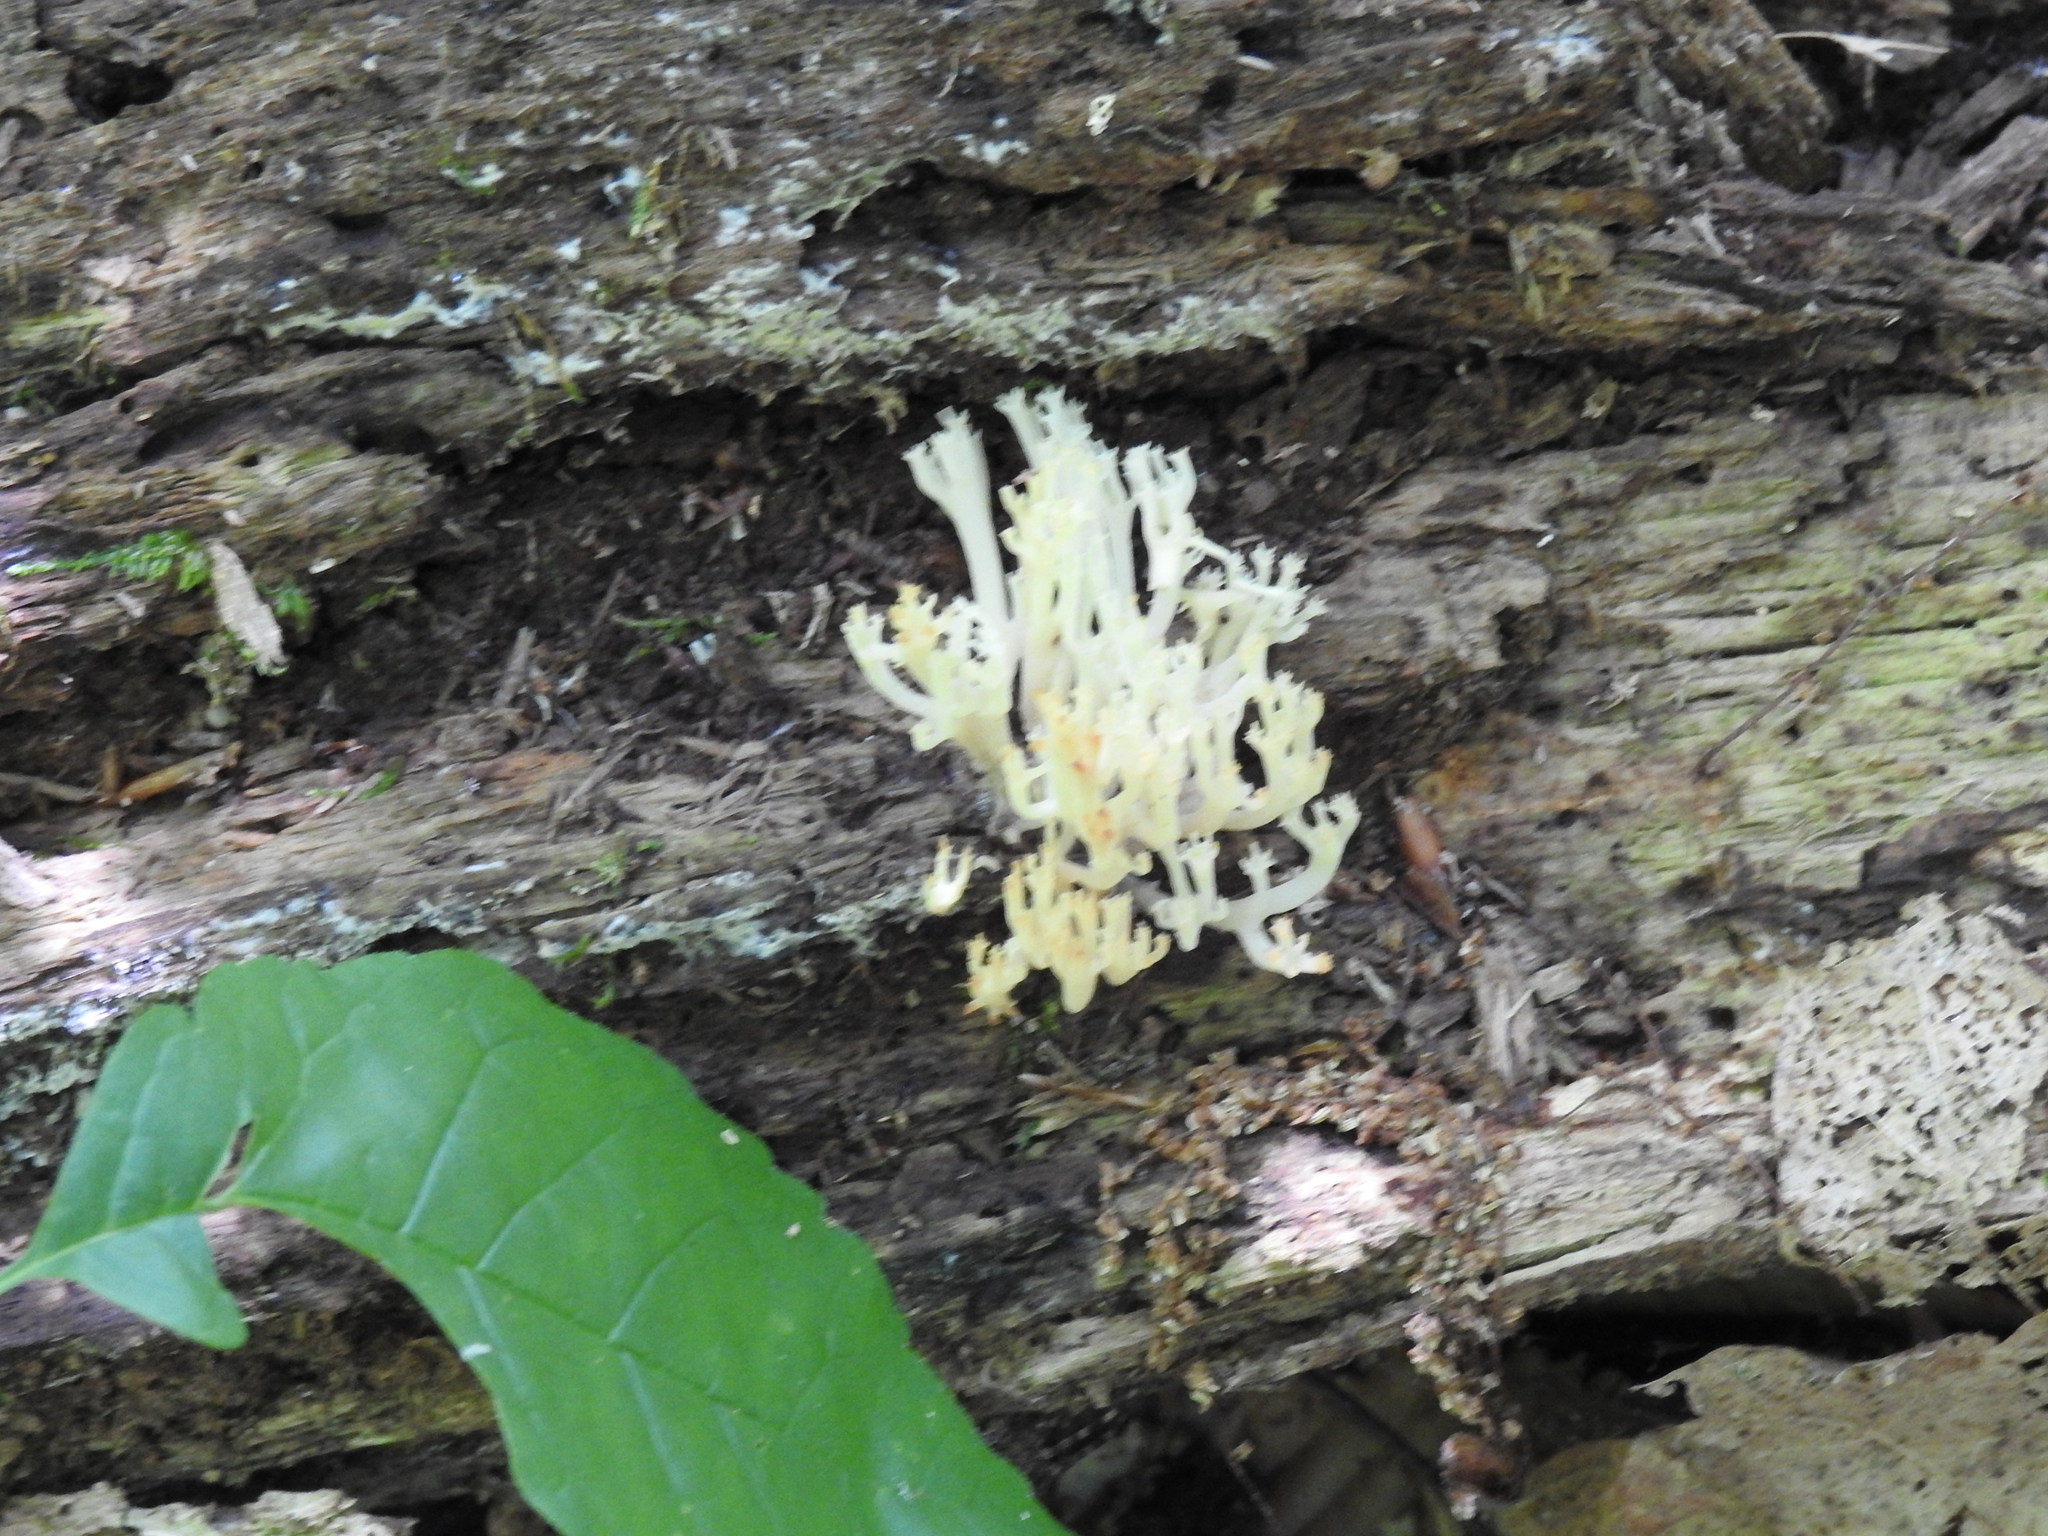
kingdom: Fungi
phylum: Basidiomycota
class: Agaricomycetes
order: Russulales
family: Auriscalpiaceae
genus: Artomyces
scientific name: Artomyces pyxidatus
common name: Crown-tipped coral fungus
